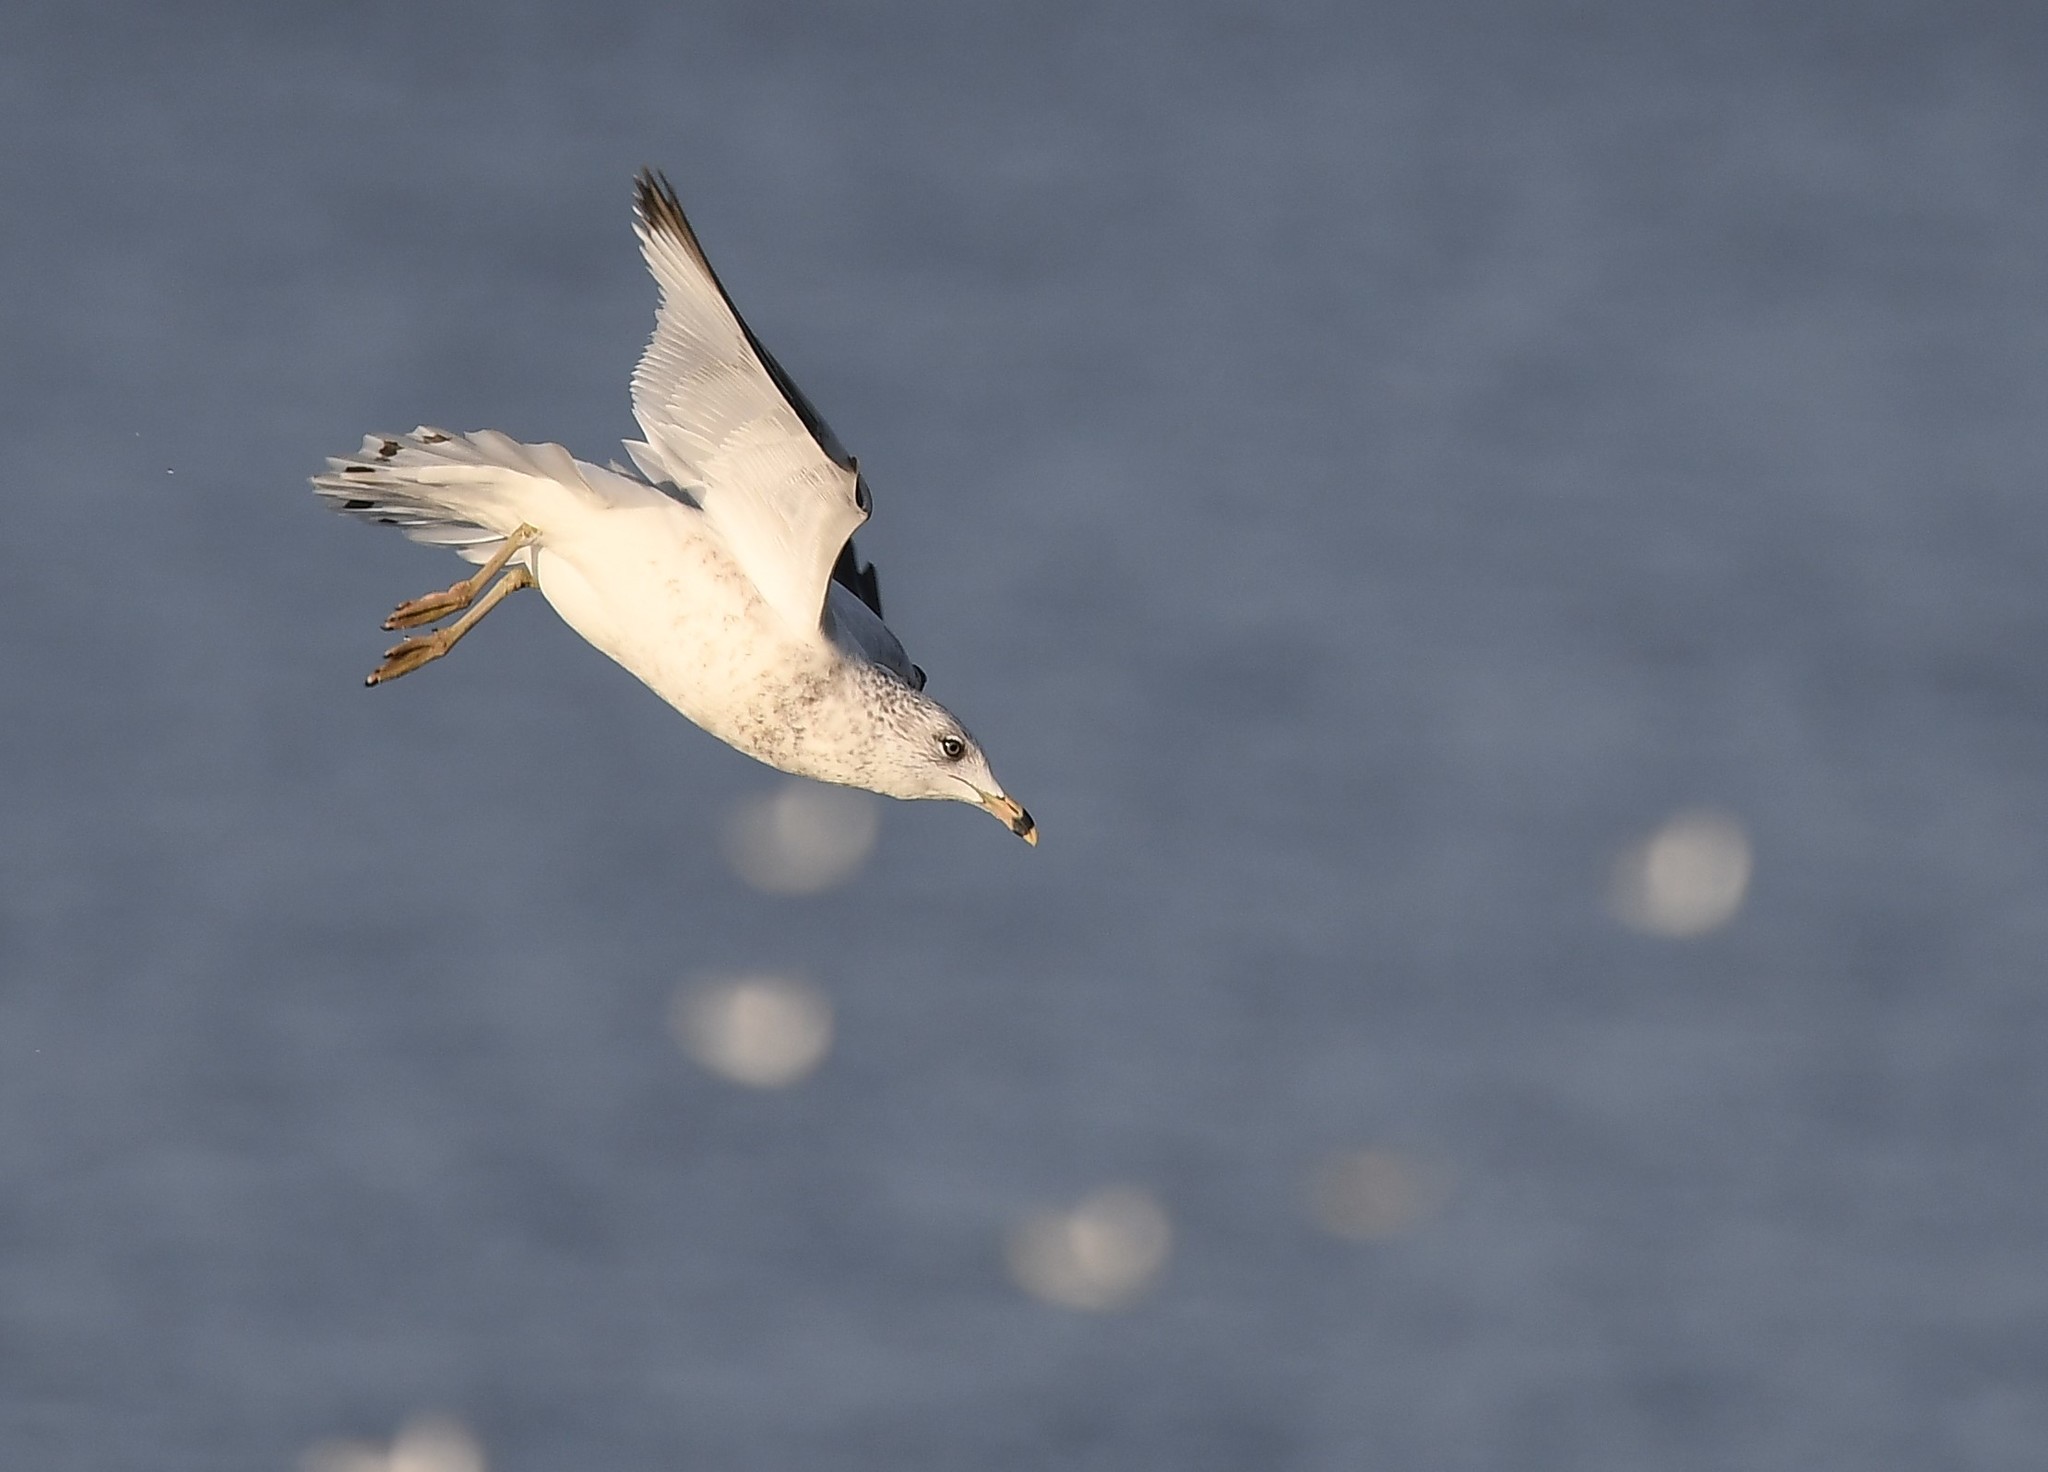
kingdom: Animalia
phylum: Chordata
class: Aves
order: Charadriiformes
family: Laridae
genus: Larus
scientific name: Larus delawarensis
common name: Ring-billed gull
